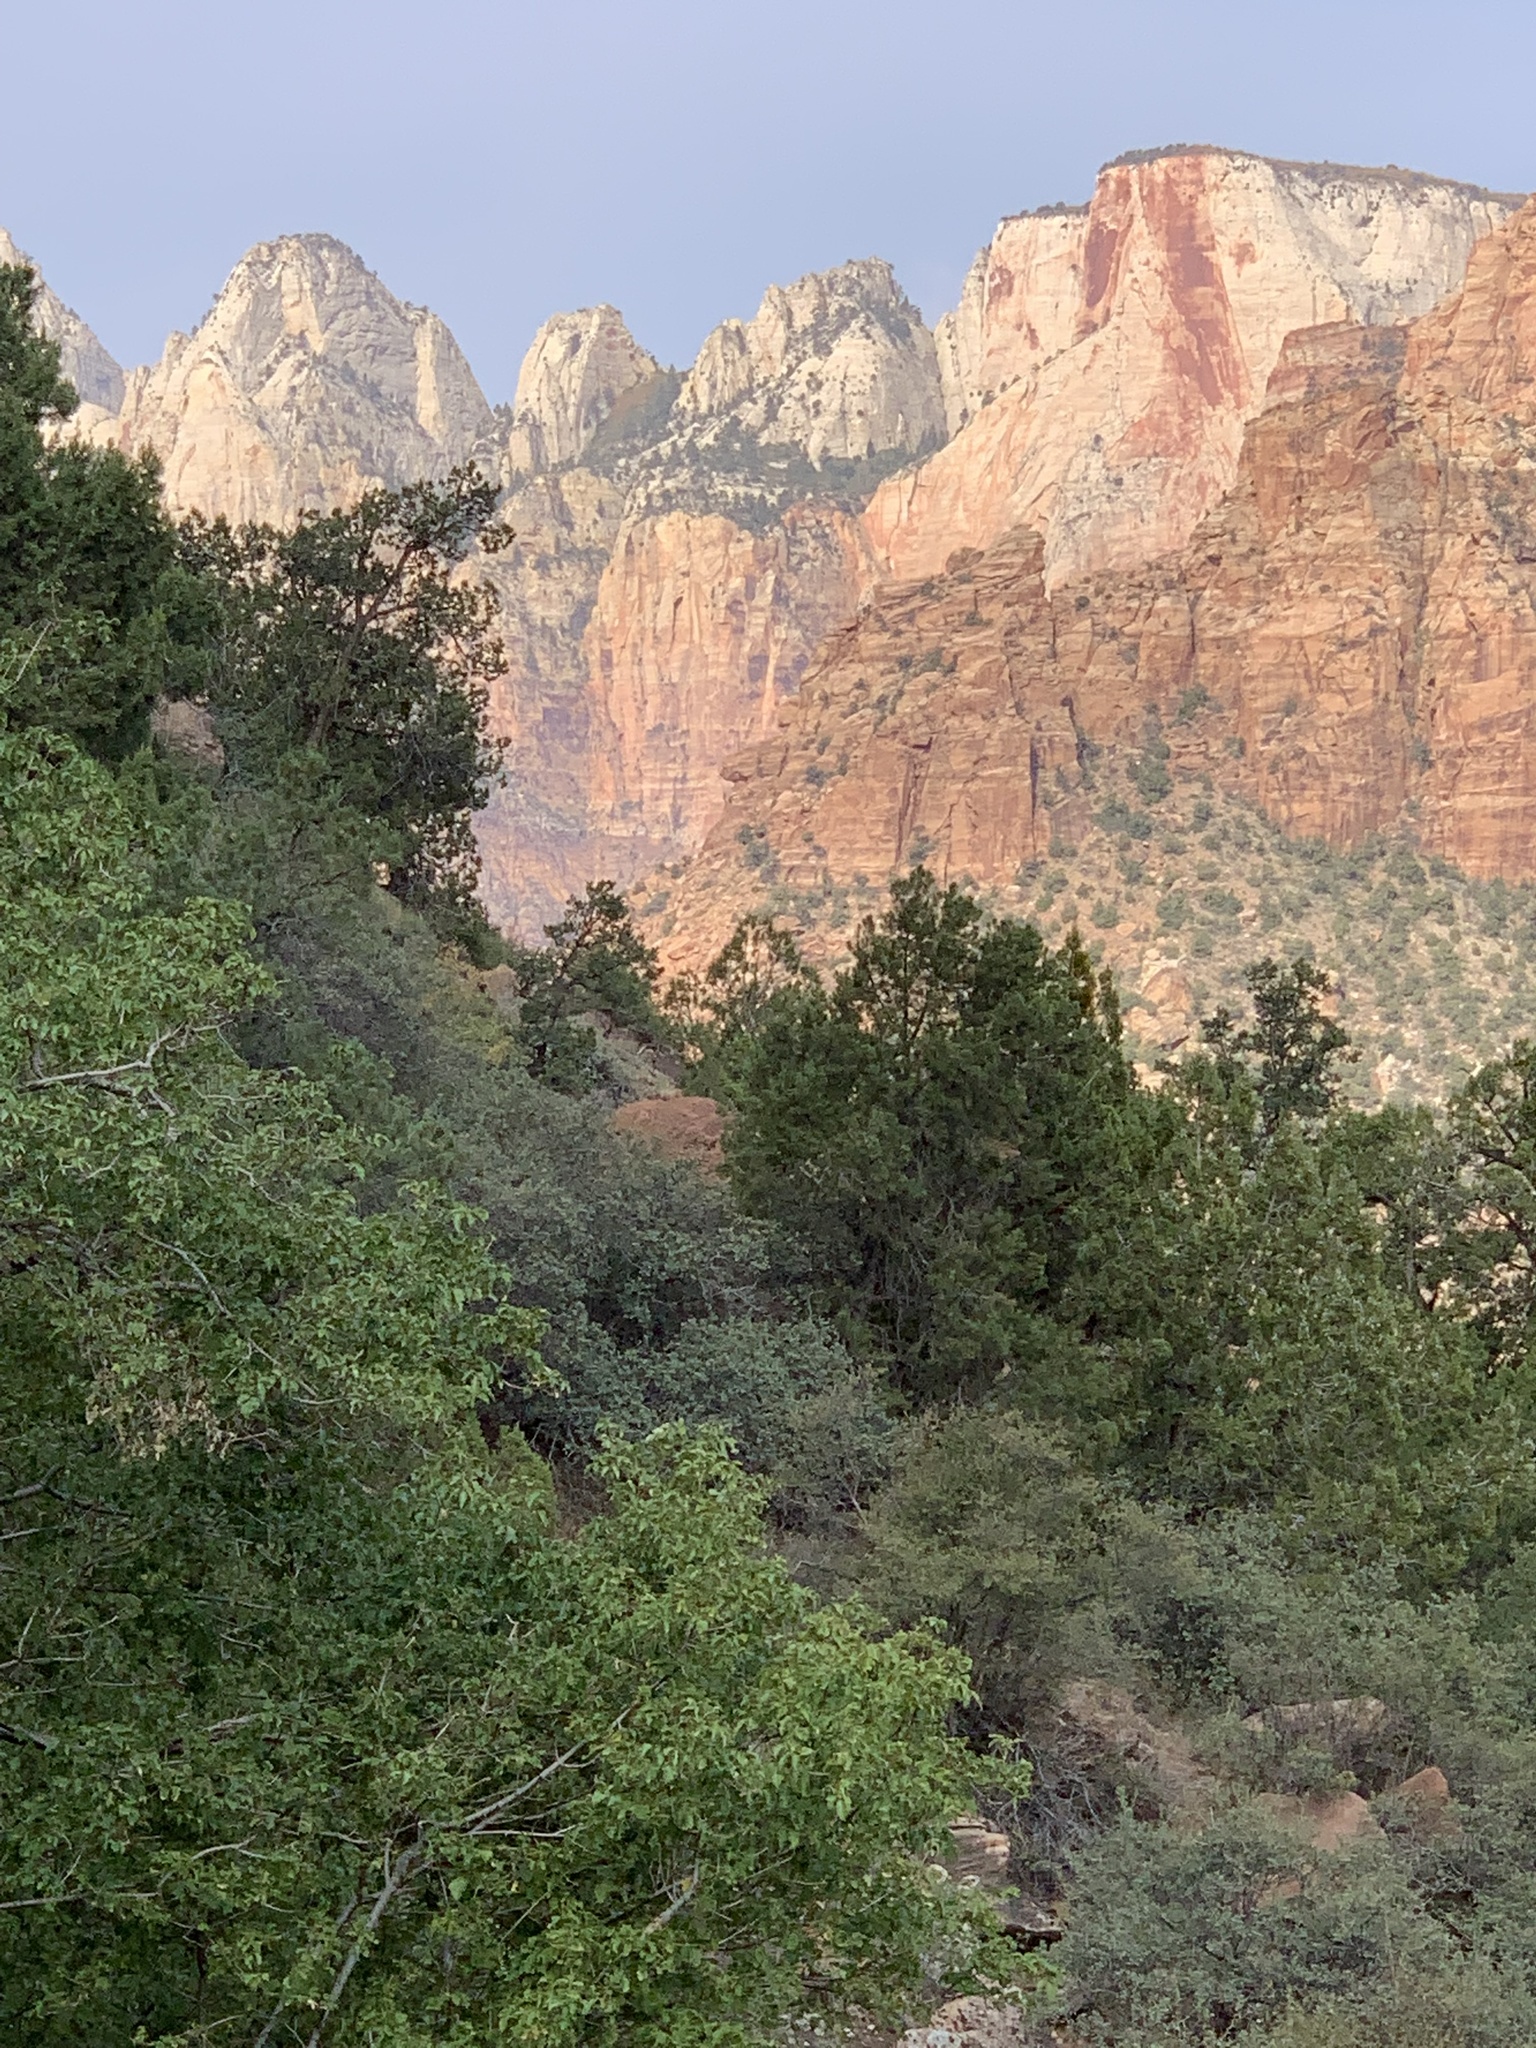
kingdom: Plantae
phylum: Tracheophyta
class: Pinopsida
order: Pinales
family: Pinaceae
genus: Pinus
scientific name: Pinus edulis
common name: Colorado pinyon
